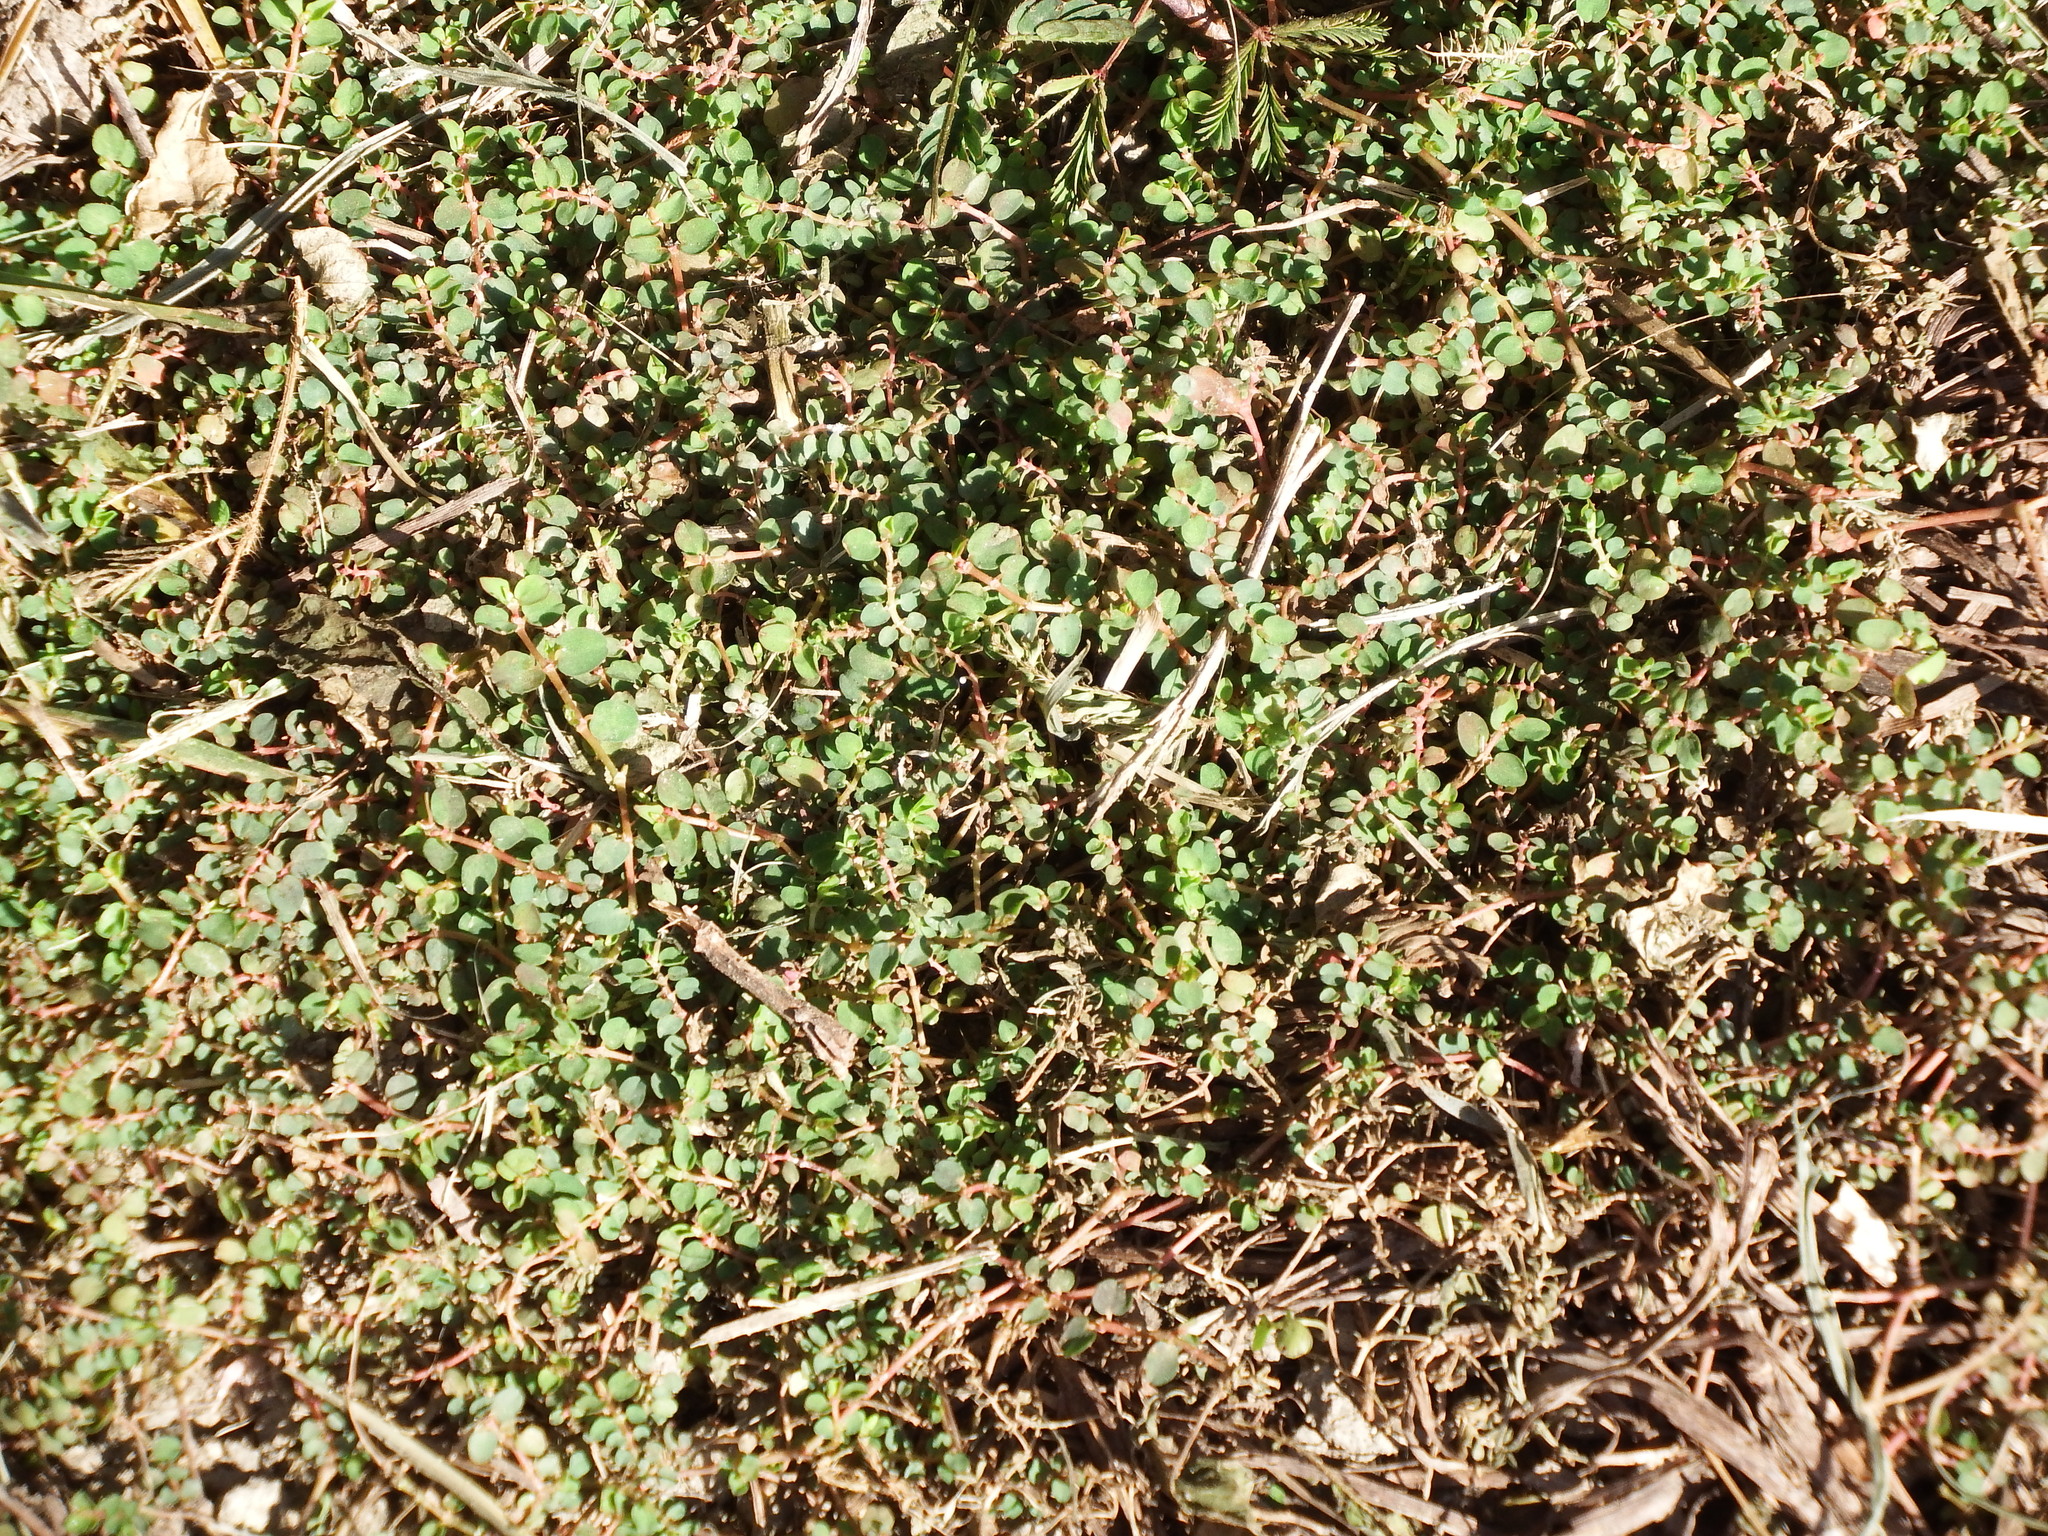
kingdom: Plantae
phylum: Tracheophyta
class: Magnoliopsida
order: Malpighiales
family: Euphorbiaceae
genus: Euphorbia
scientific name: Euphorbia serpens
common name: Matted sandmat
